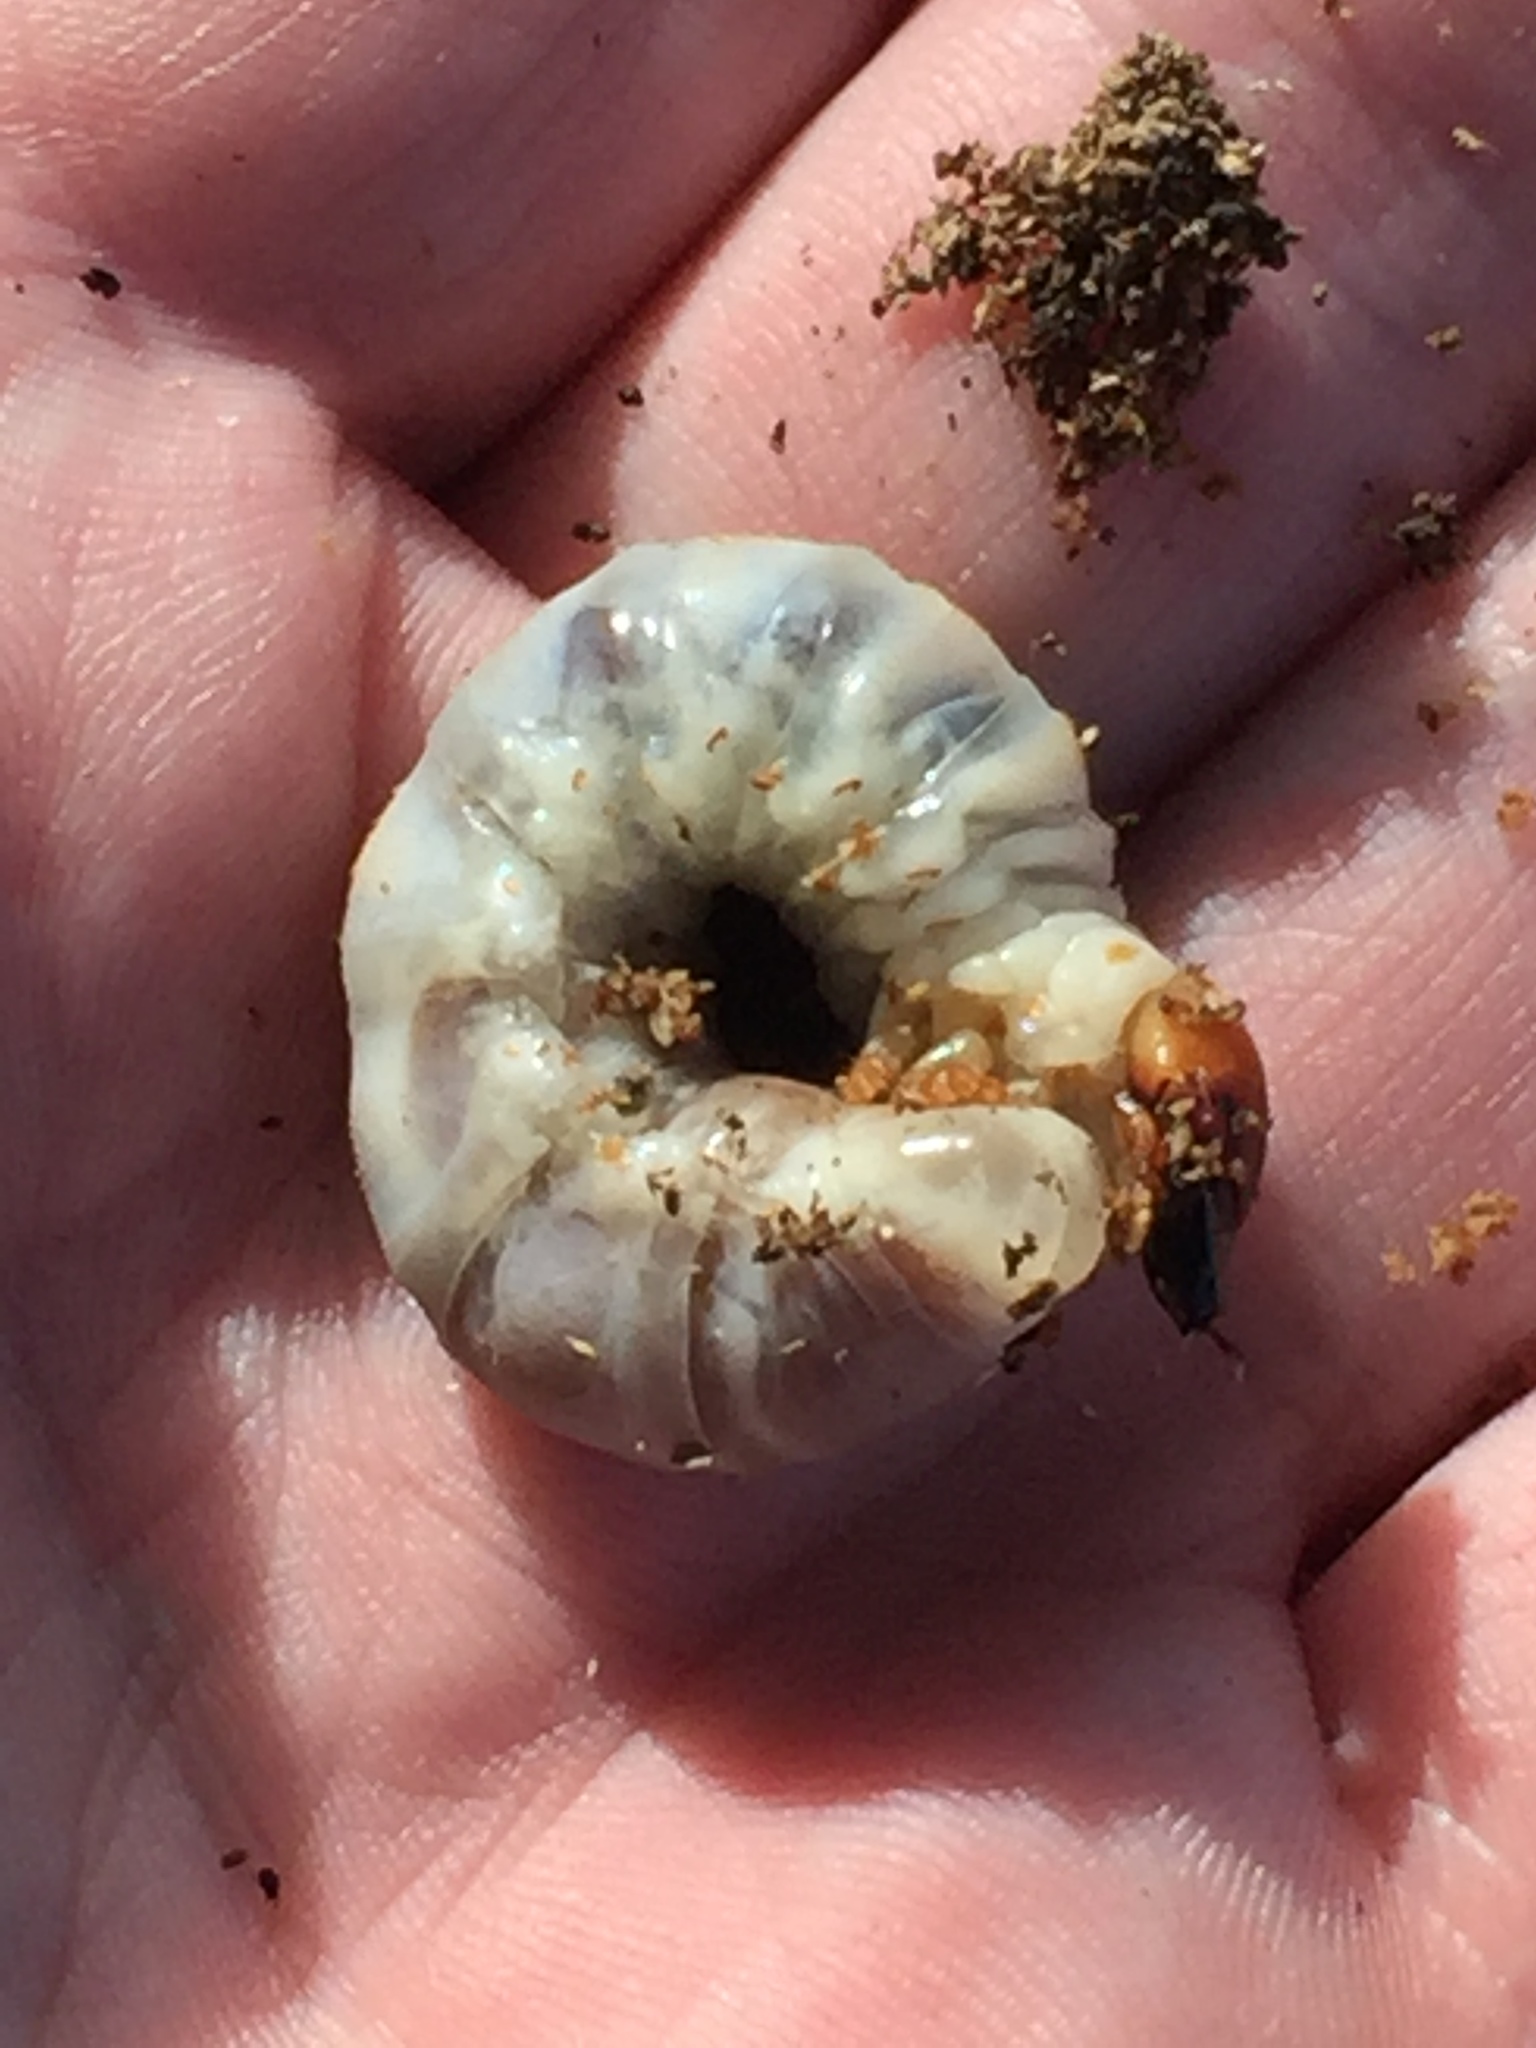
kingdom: Animalia
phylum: Arthropoda
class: Insecta
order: Coleoptera
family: Lucanidae
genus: Ryssonotus
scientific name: Ryssonotus nebulosus
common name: Brown stag beetle
